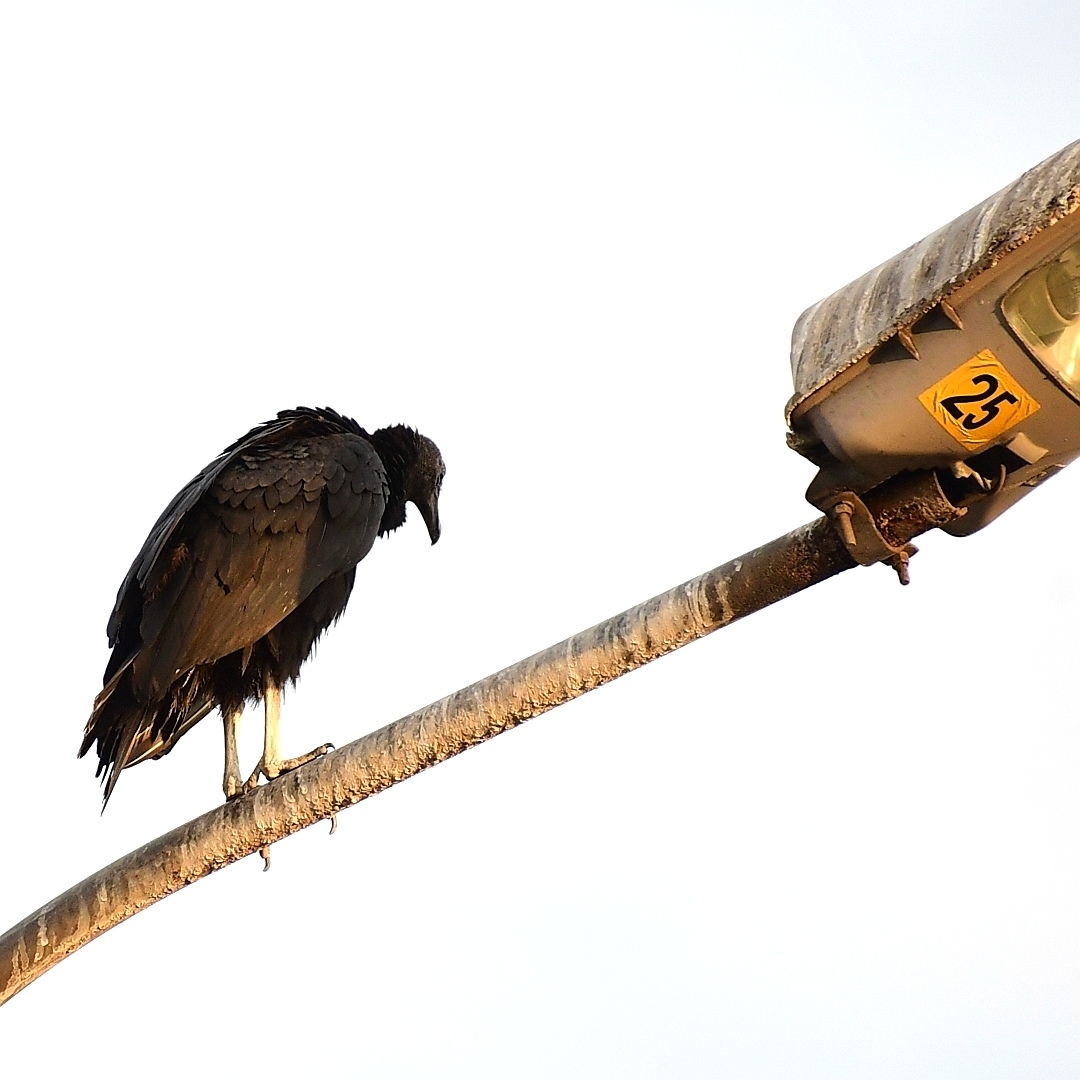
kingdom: Animalia
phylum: Chordata
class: Aves
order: Accipitriformes
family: Cathartidae
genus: Coragyps
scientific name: Coragyps atratus
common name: Black vulture
